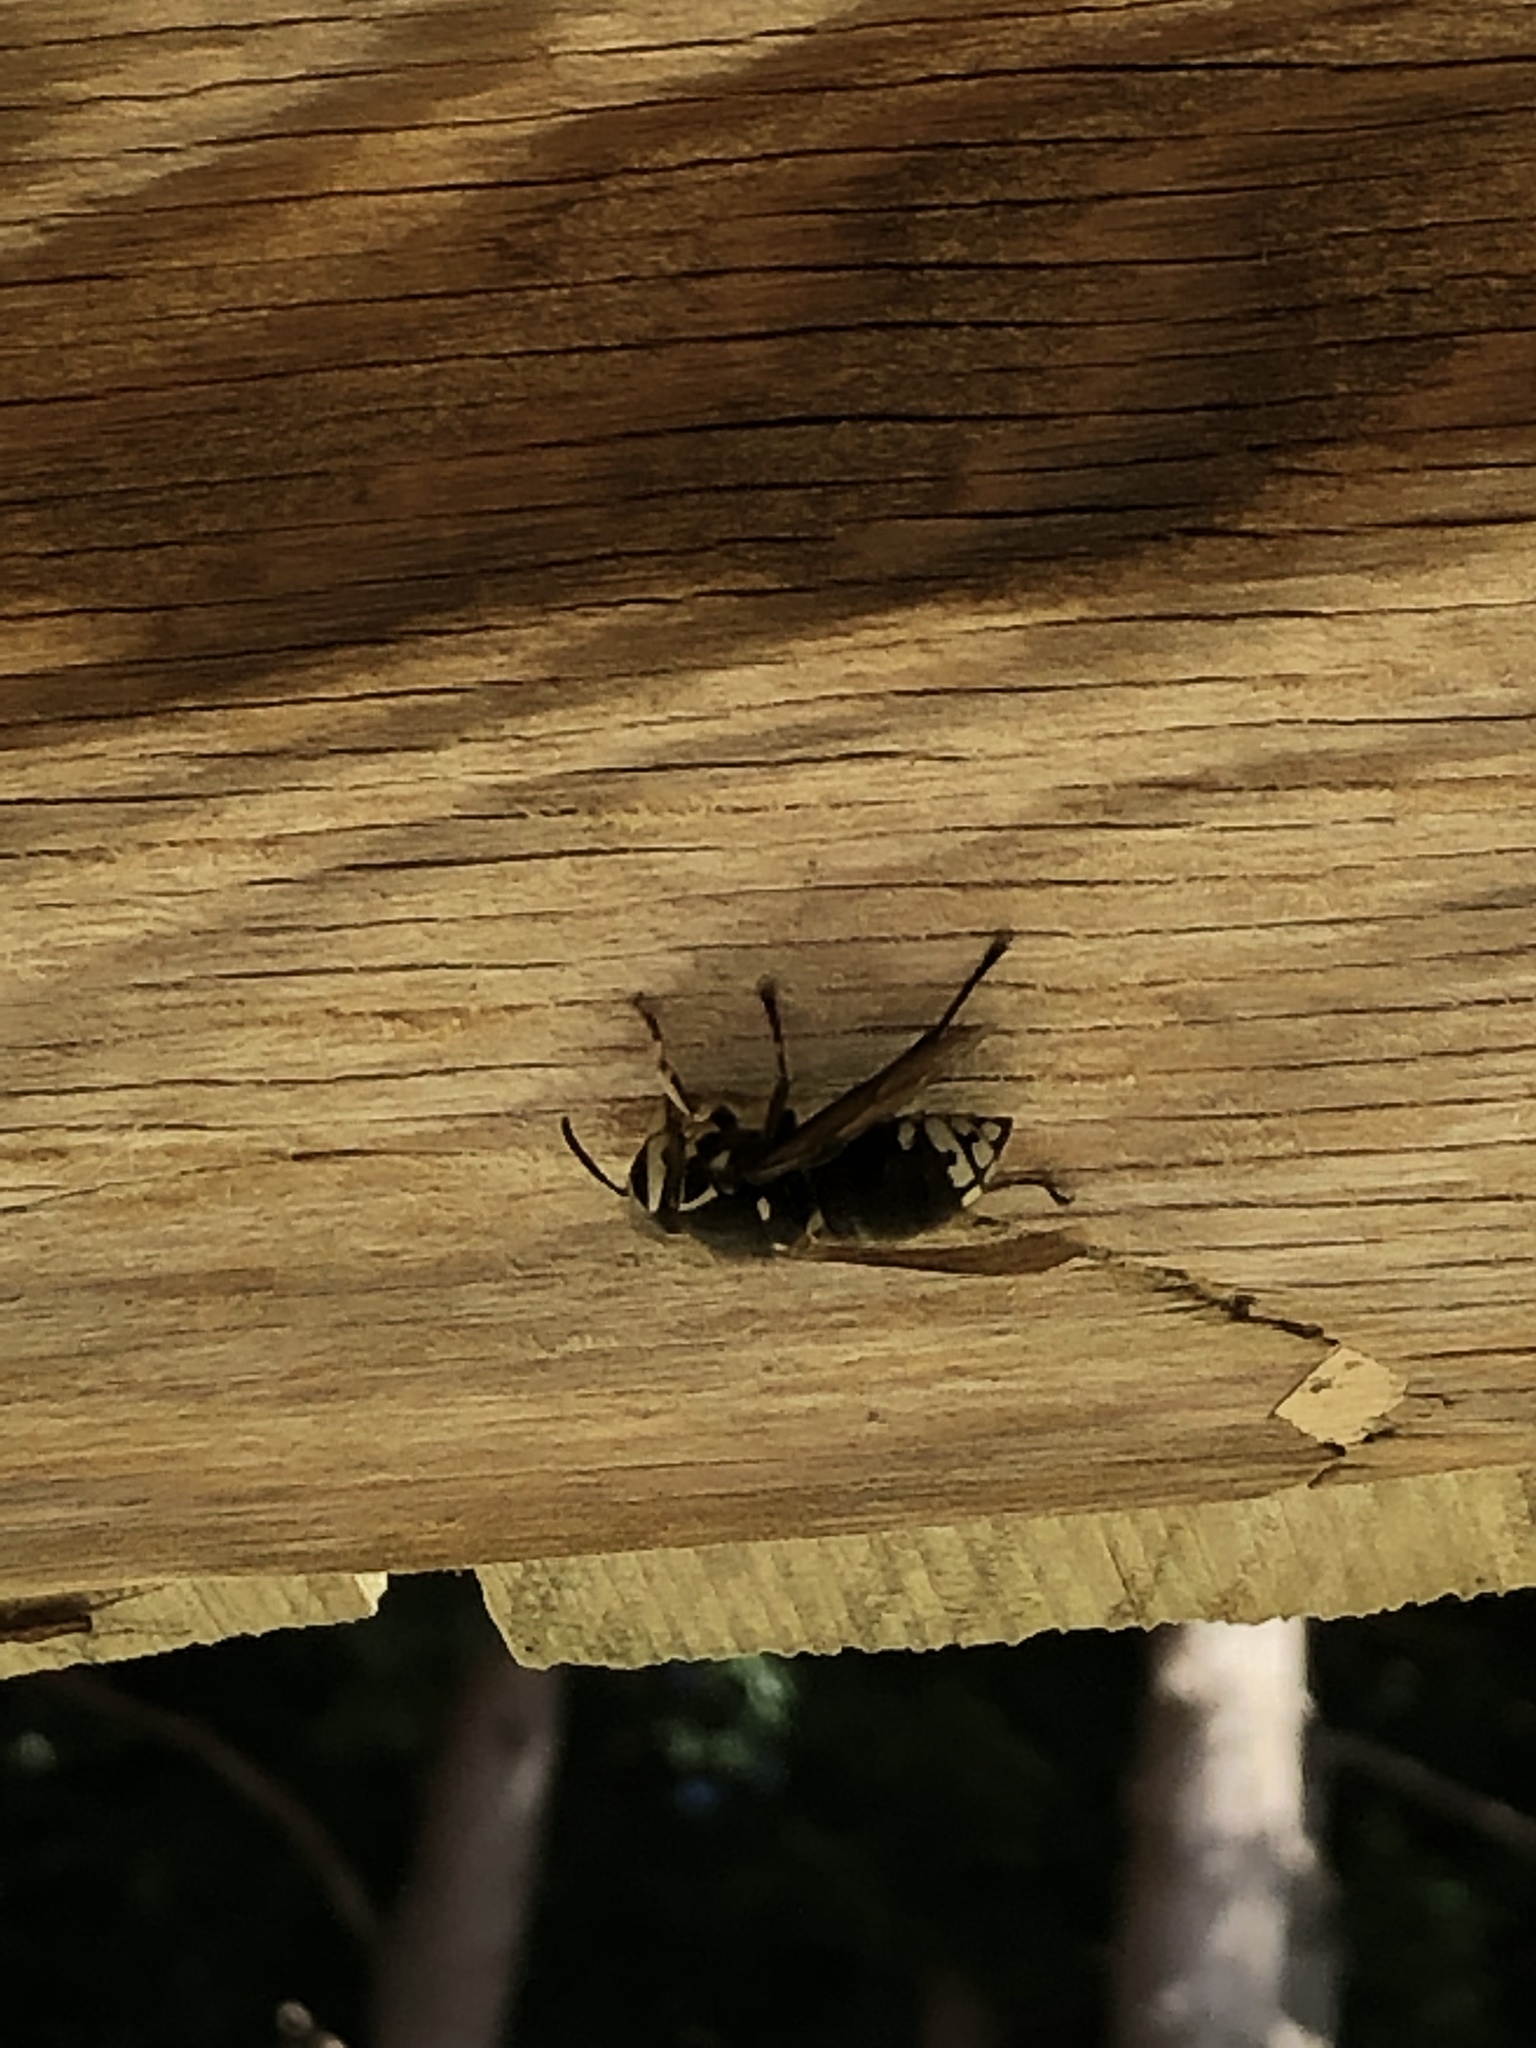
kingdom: Animalia
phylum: Arthropoda
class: Insecta
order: Hymenoptera
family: Vespidae
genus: Dolichovespula
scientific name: Dolichovespula maculata
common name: Bald-faced hornet
